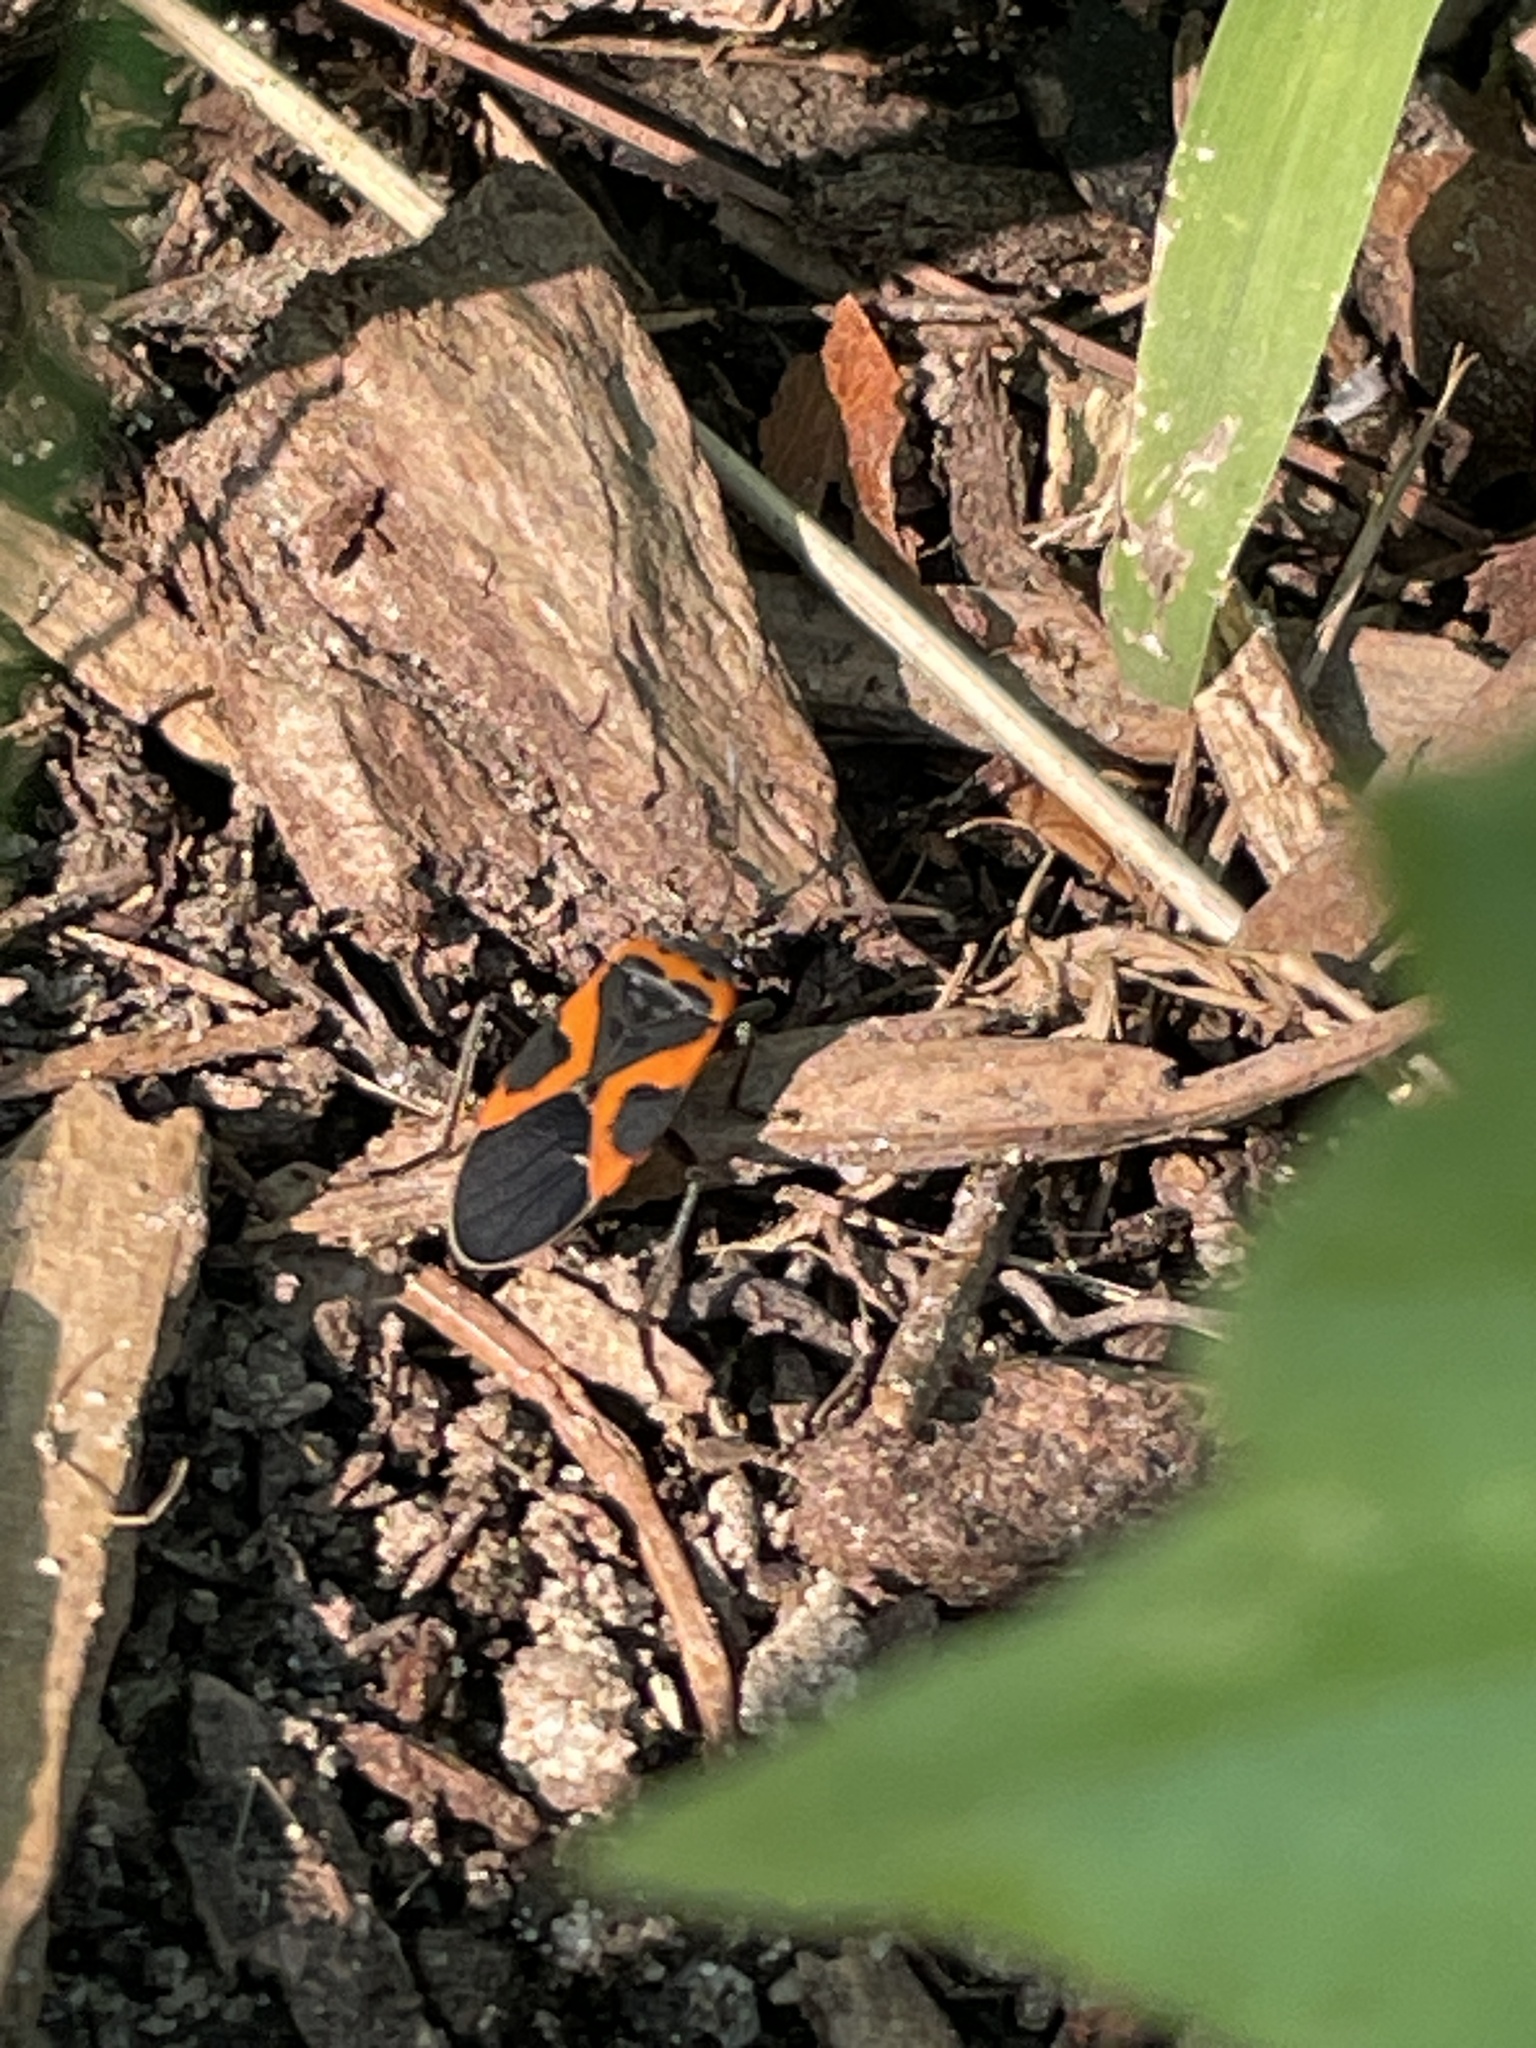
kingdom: Animalia
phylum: Arthropoda
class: Insecta
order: Hemiptera
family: Lygaeidae
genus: Lygaeus
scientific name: Lygaeus kalmii
